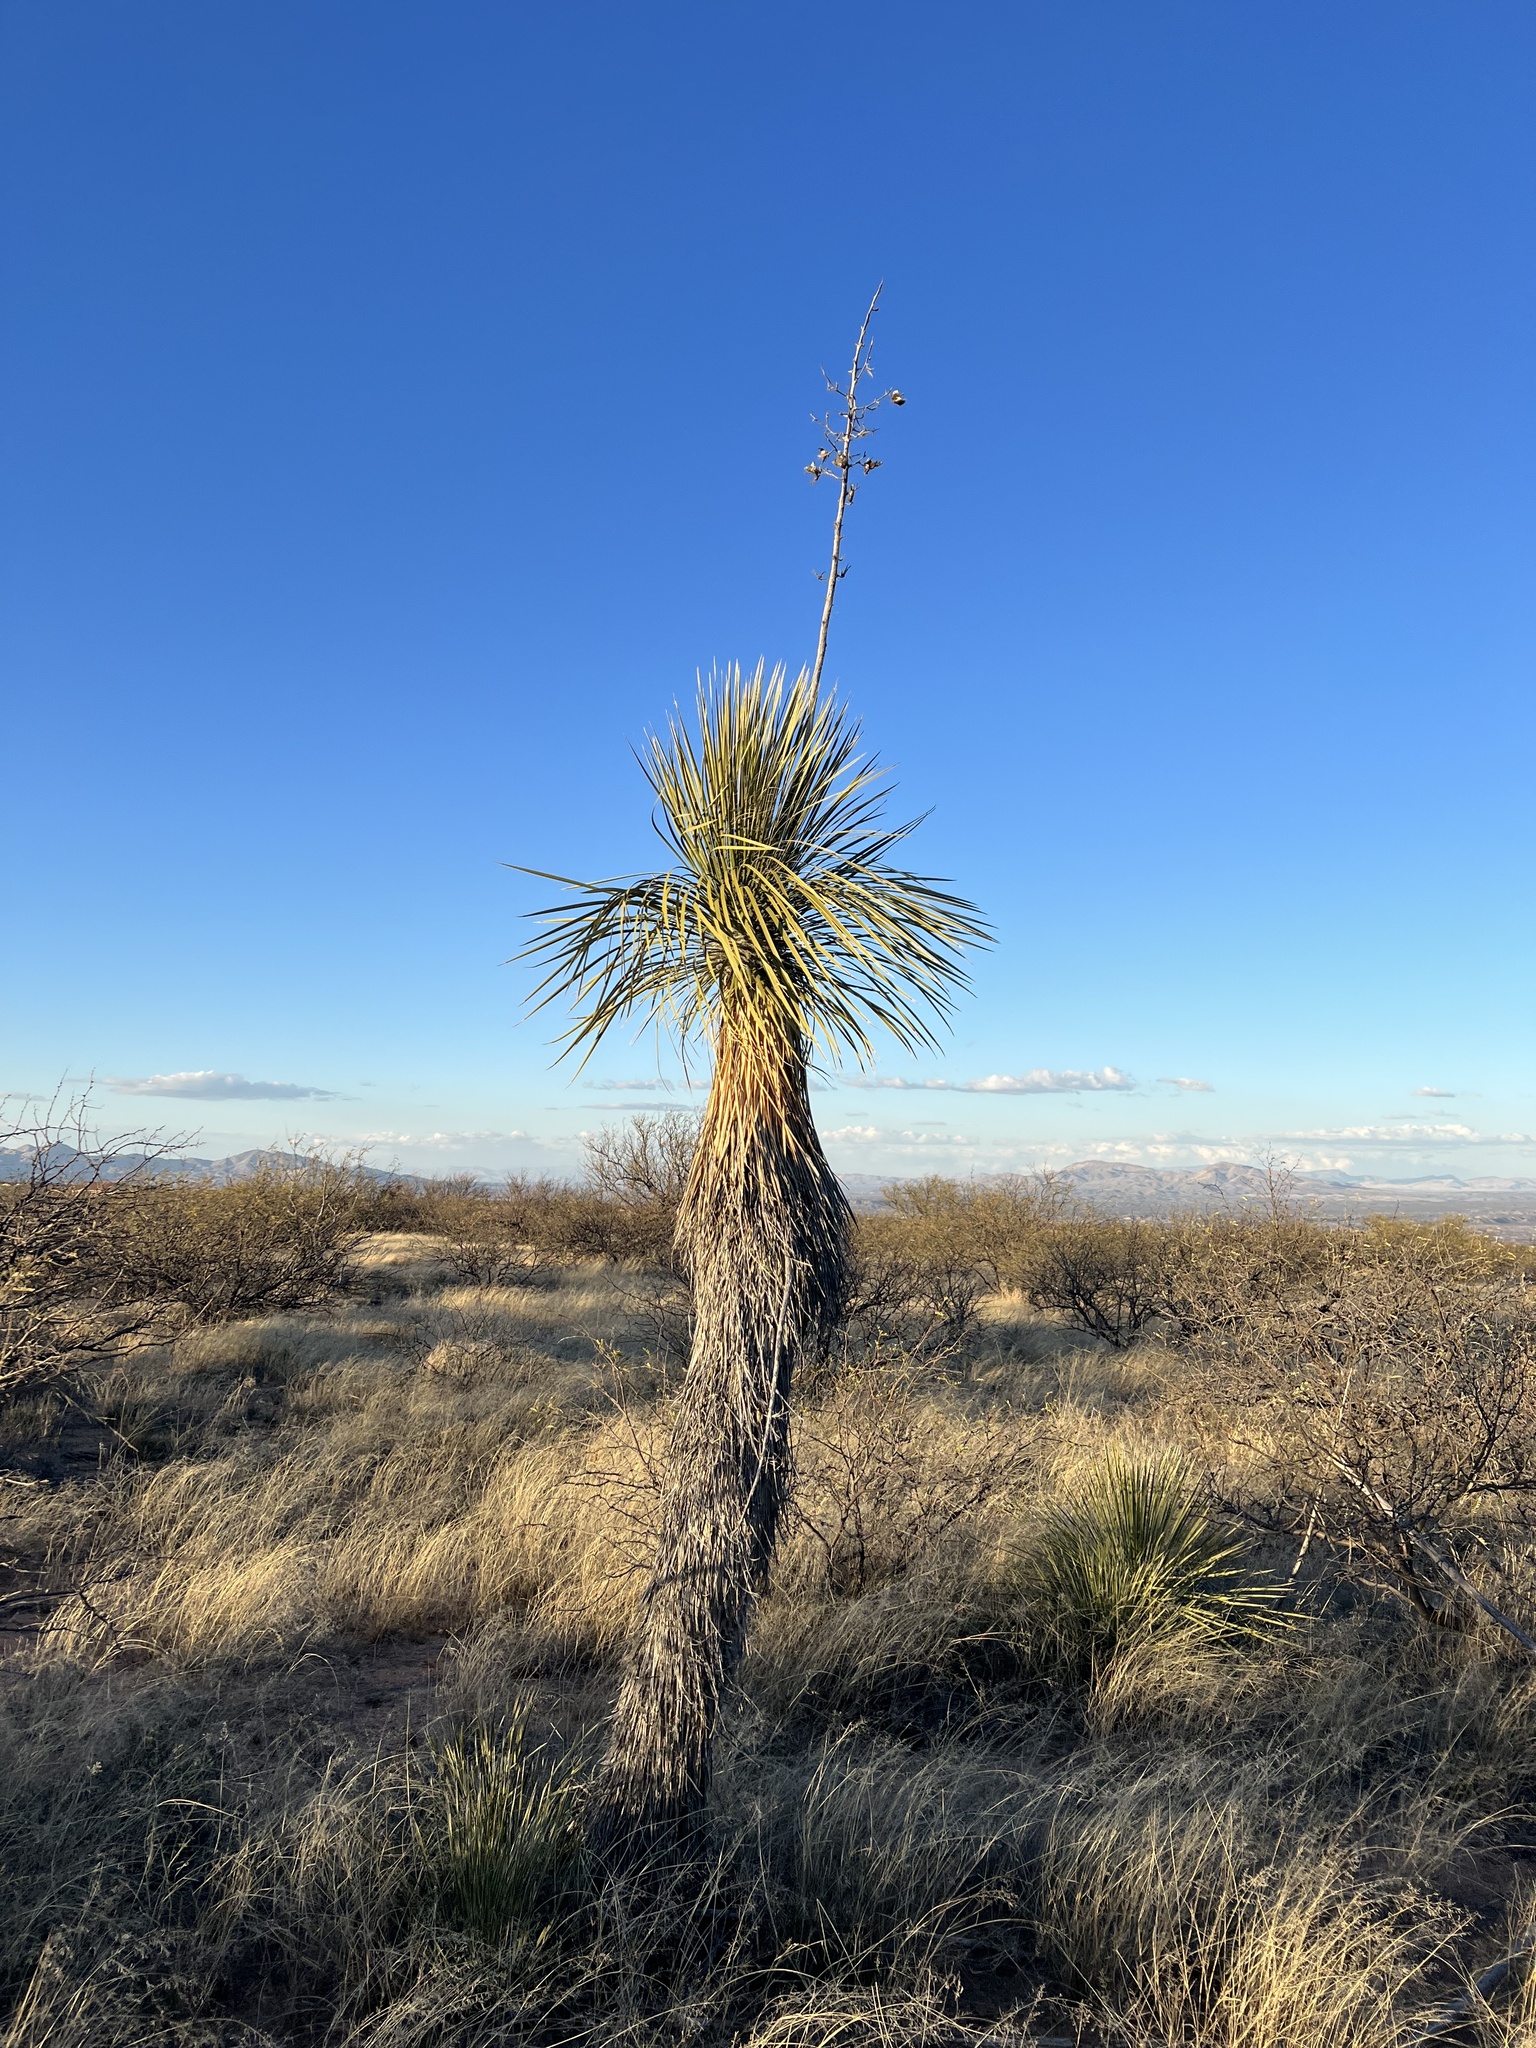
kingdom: Plantae
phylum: Tracheophyta
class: Liliopsida
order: Asparagales
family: Asparagaceae
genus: Yucca
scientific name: Yucca elata
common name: Palmella
